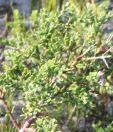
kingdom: Plantae
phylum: Tracheophyta
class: Magnoliopsida
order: Fabales
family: Polygalaceae
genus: Muraltia
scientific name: Muraltia spinosa
